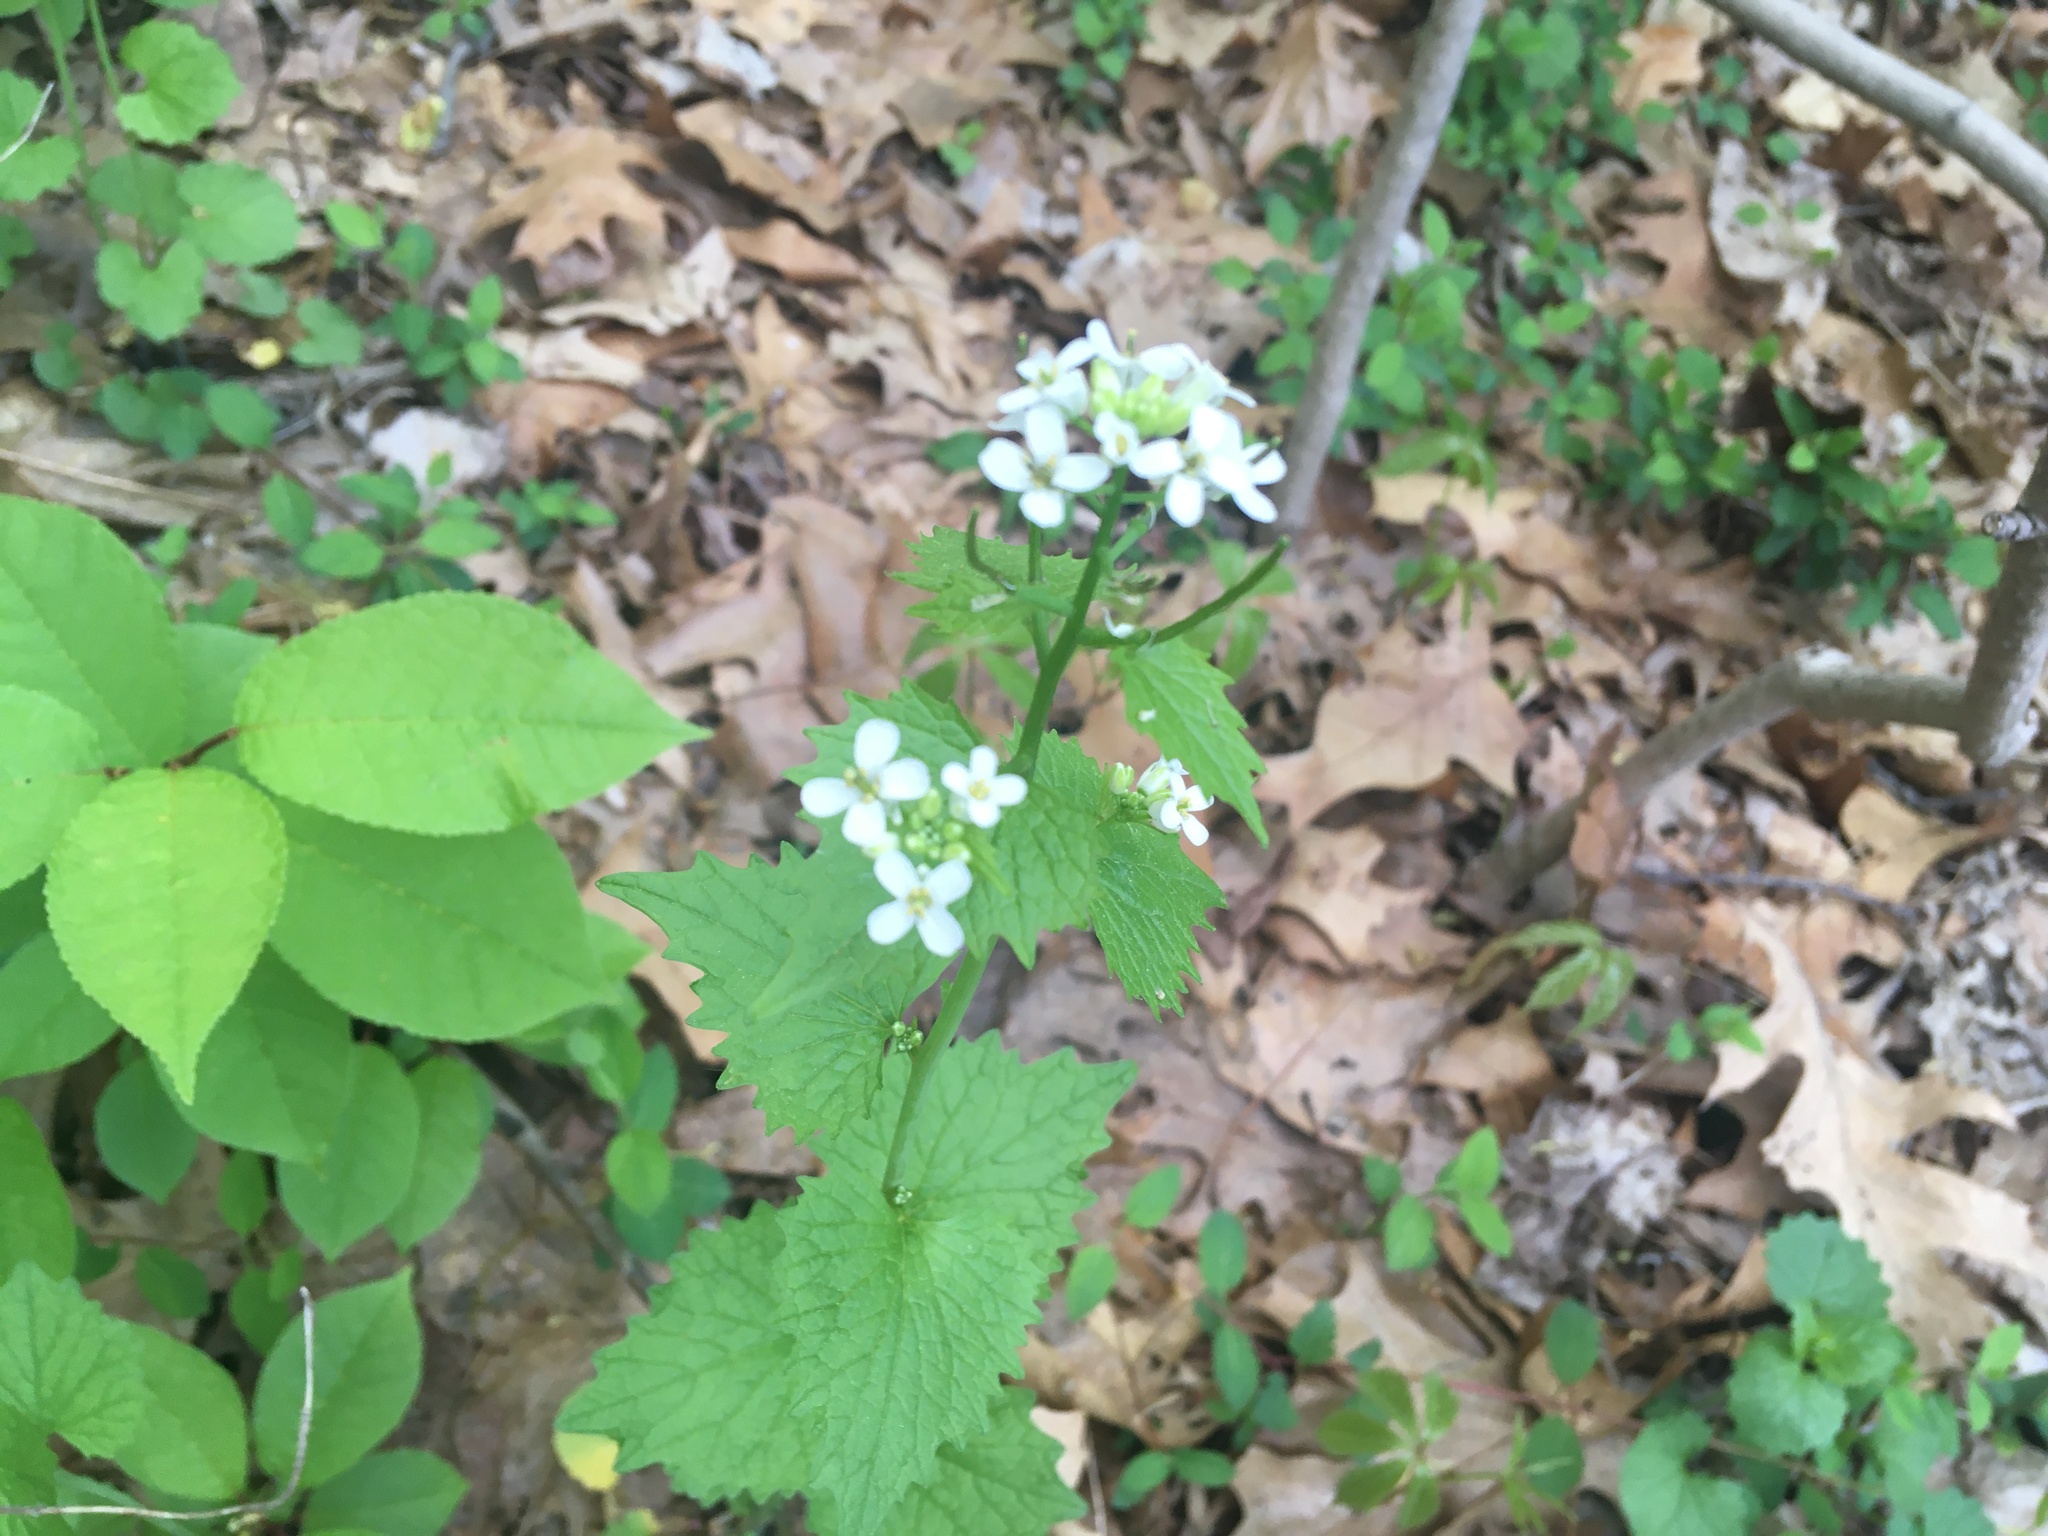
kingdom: Plantae
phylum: Tracheophyta
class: Magnoliopsida
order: Brassicales
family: Brassicaceae
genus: Alliaria
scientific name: Alliaria petiolata
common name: Garlic mustard
